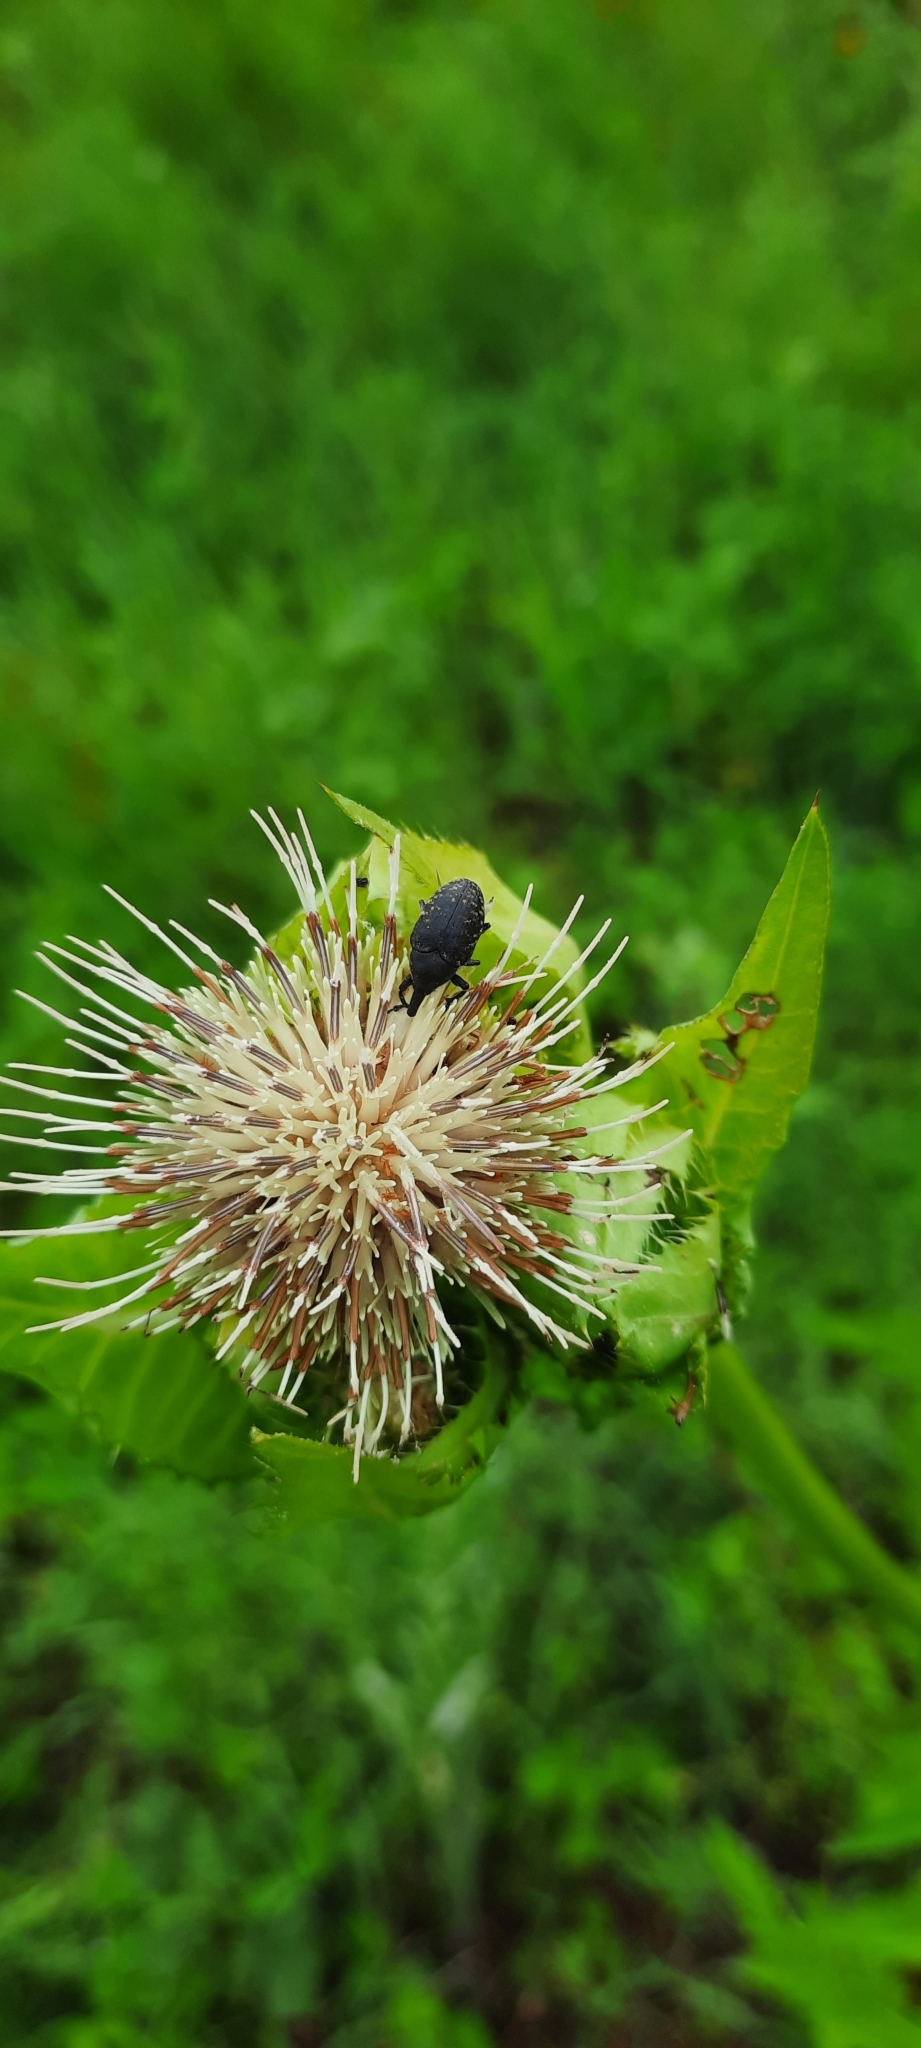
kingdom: Plantae
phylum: Tracheophyta
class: Magnoliopsida
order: Asterales
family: Asteraceae
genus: Cirsium
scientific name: Cirsium oleraceum
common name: Cabbage thistle
